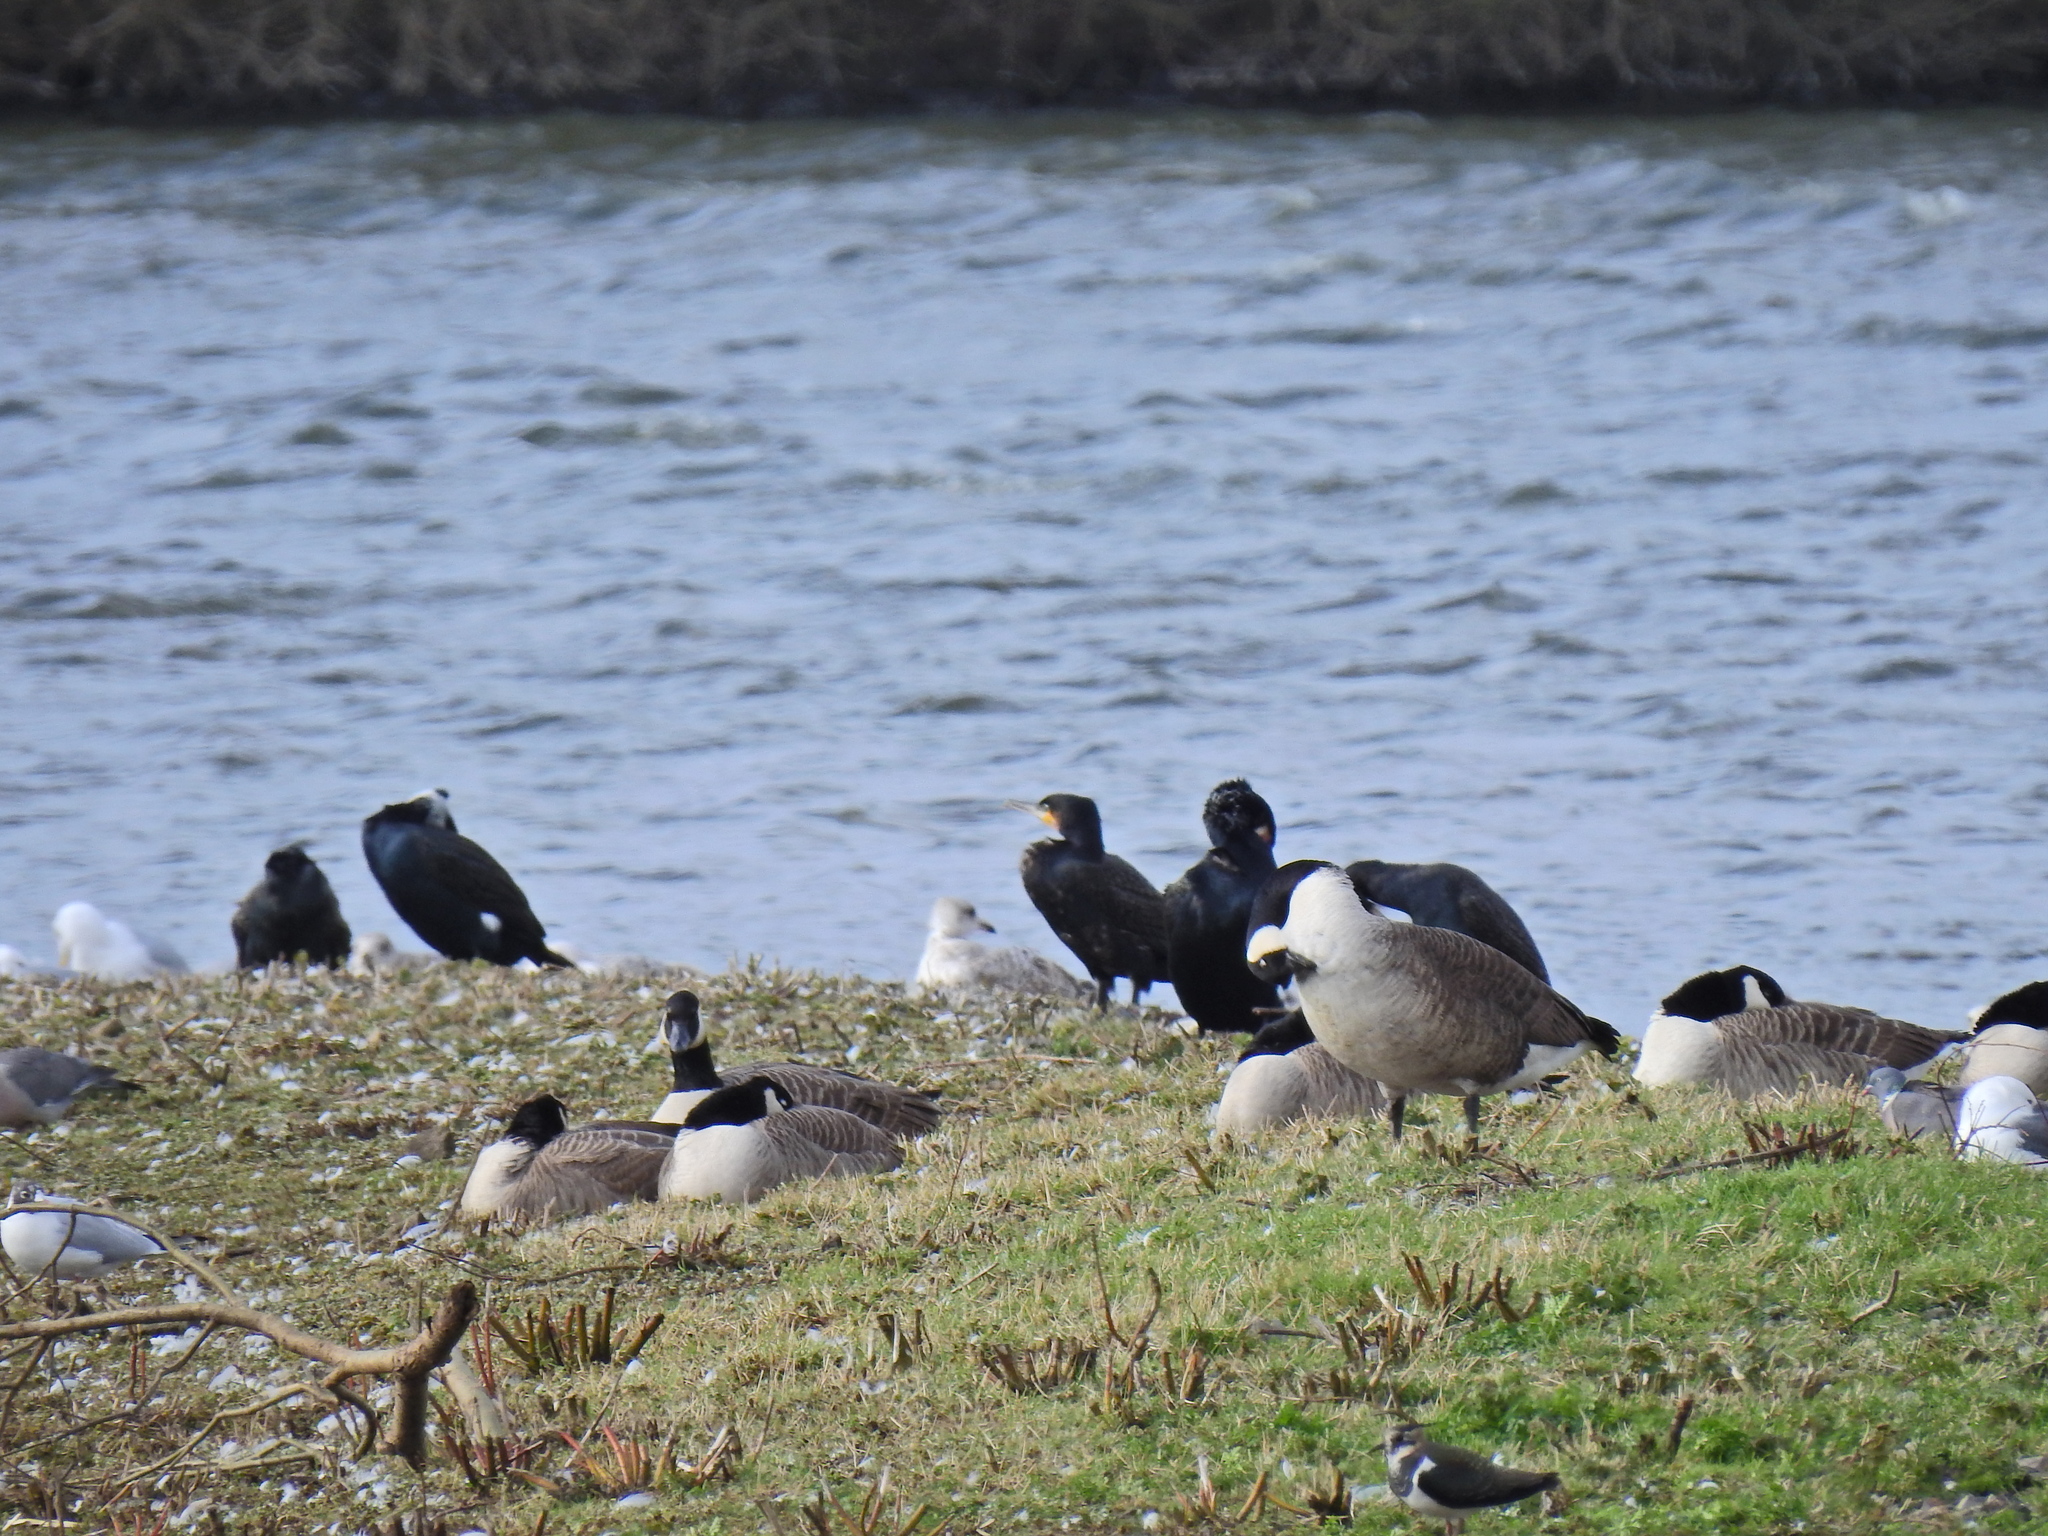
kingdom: Animalia
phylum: Chordata
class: Aves
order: Anseriformes
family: Anatidae
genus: Branta
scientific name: Branta canadensis
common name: Canada goose
